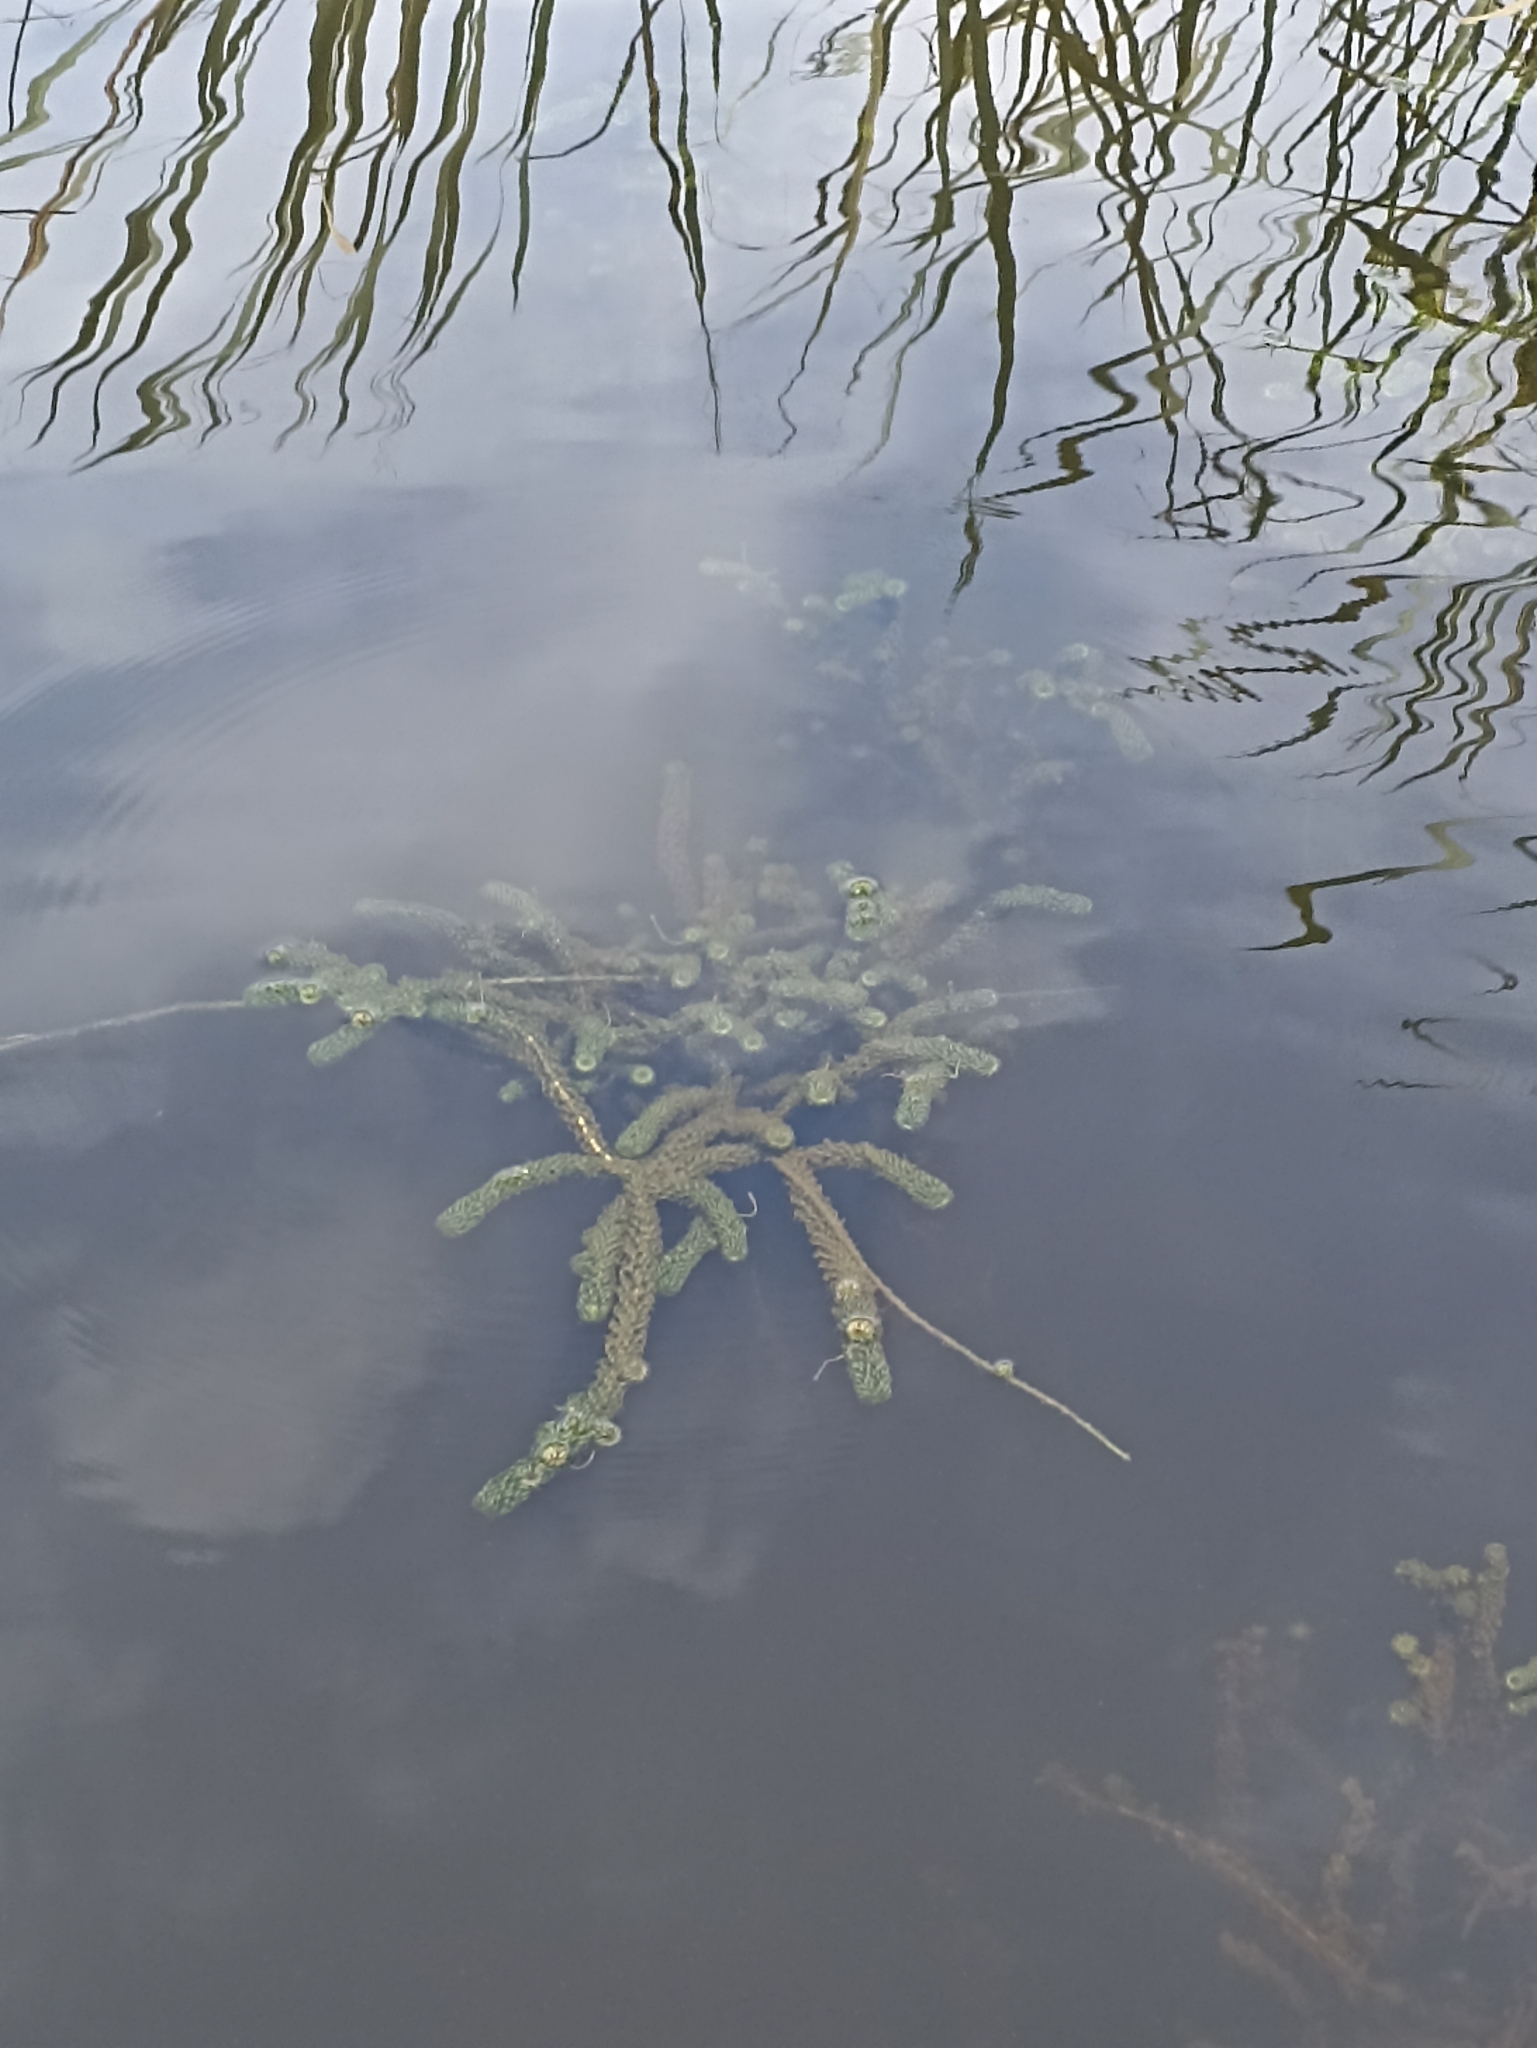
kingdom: Plantae
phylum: Tracheophyta
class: Liliopsida
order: Alismatales
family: Hydrocharitaceae
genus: Lagarosiphon
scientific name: Lagarosiphon major
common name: Curly waterweed
